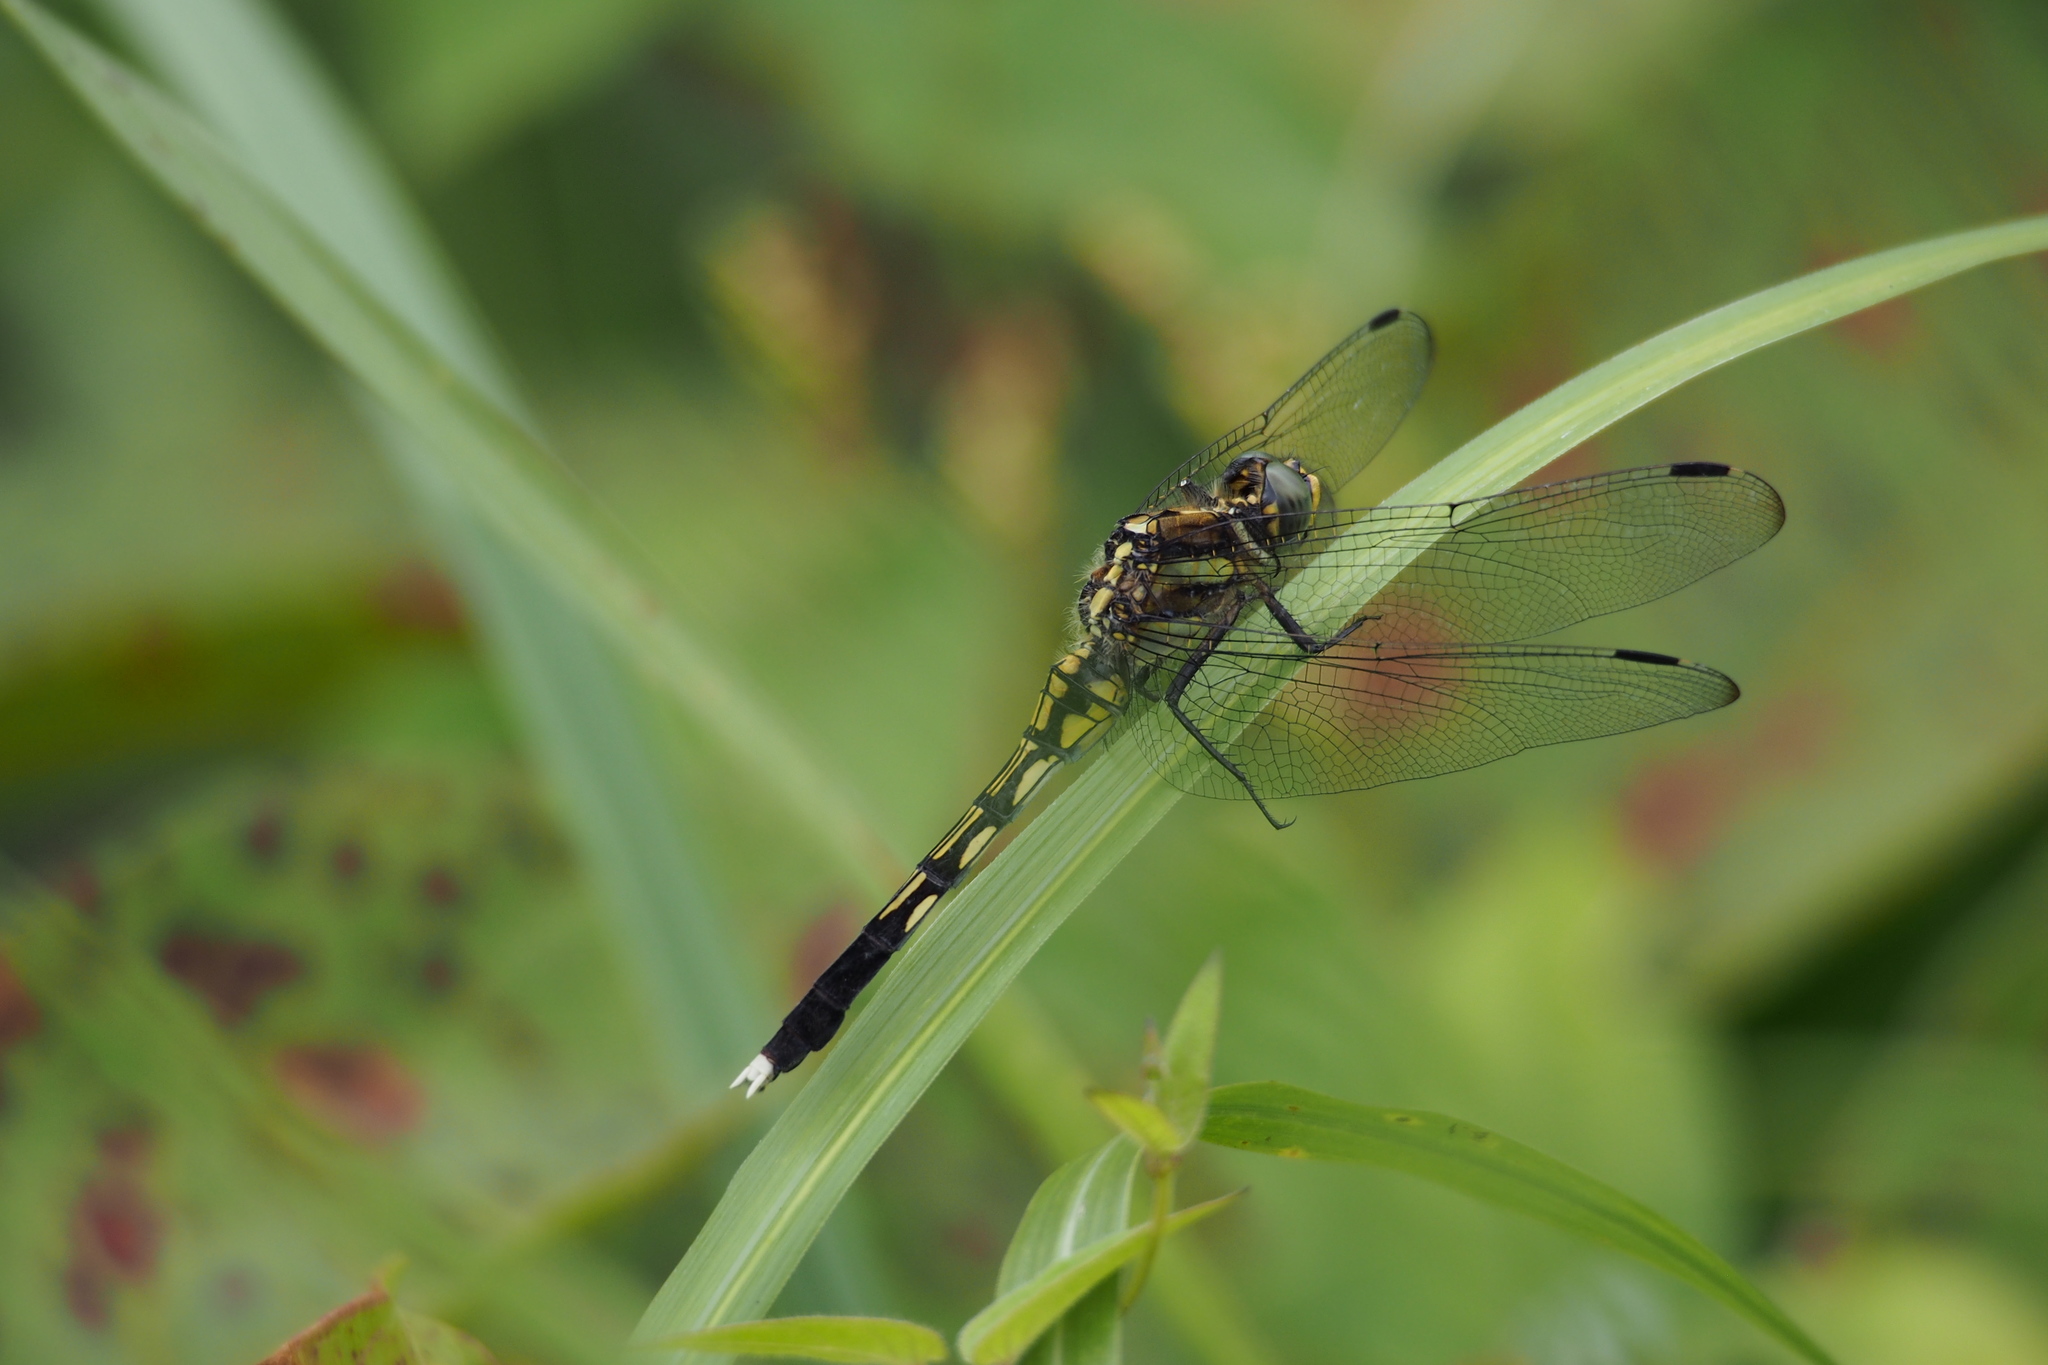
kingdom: Animalia
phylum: Arthropoda
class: Insecta
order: Odonata
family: Libellulidae
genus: Orthetrum
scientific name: Orthetrum albistylum
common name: White-tailed skimmer
